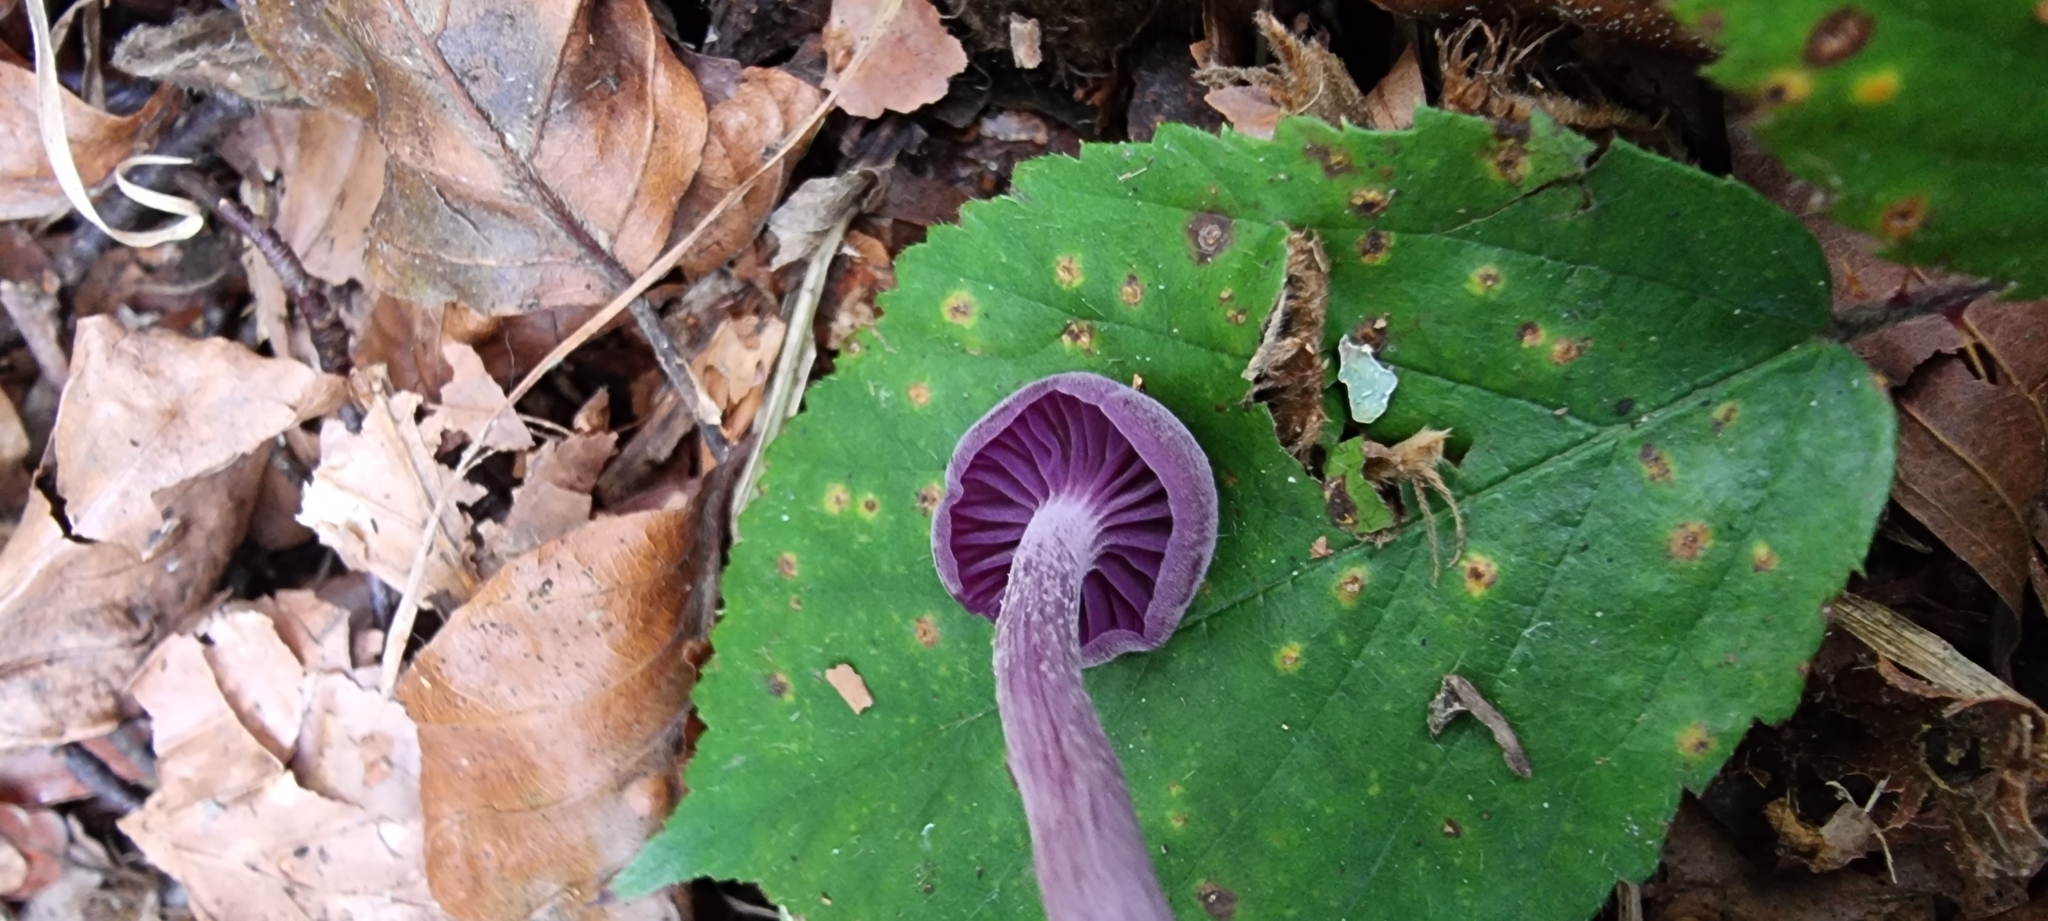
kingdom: Fungi
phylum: Basidiomycota
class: Agaricomycetes
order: Agaricales
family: Hydnangiaceae
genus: Laccaria
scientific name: Laccaria amethystina
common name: Amethyst deceiver
